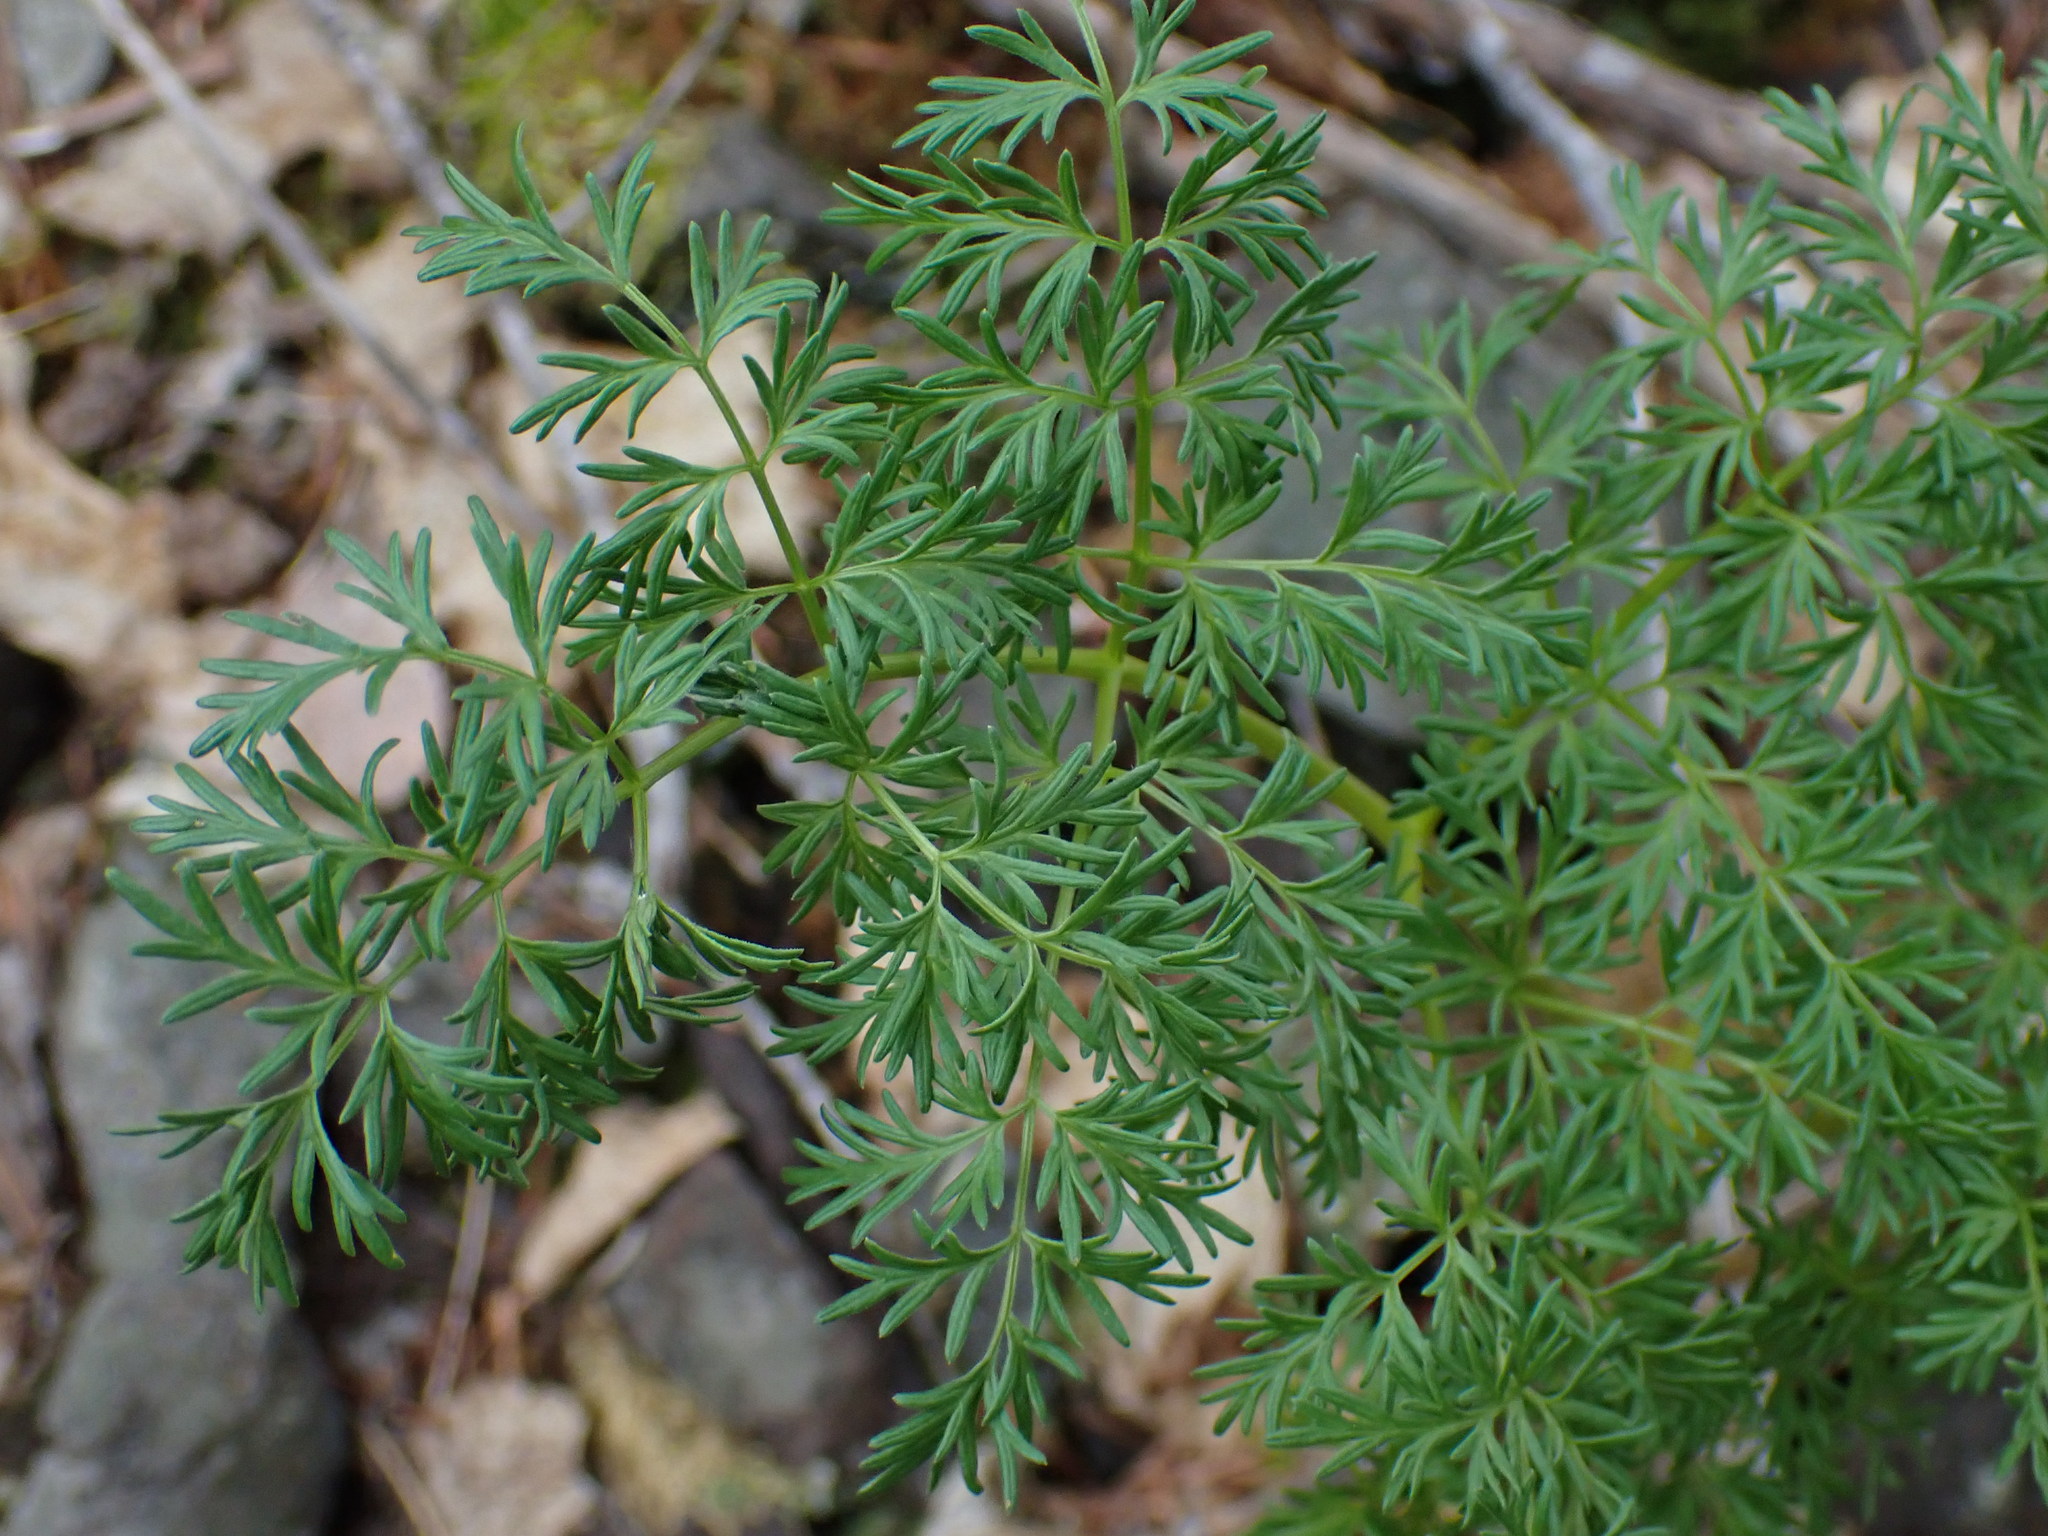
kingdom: Plantae
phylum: Tracheophyta
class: Magnoliopsida
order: Apiales
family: Apiaceae
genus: Lomatium
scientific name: Lomatium multifidum
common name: Carrot-leaved biscuitroot
